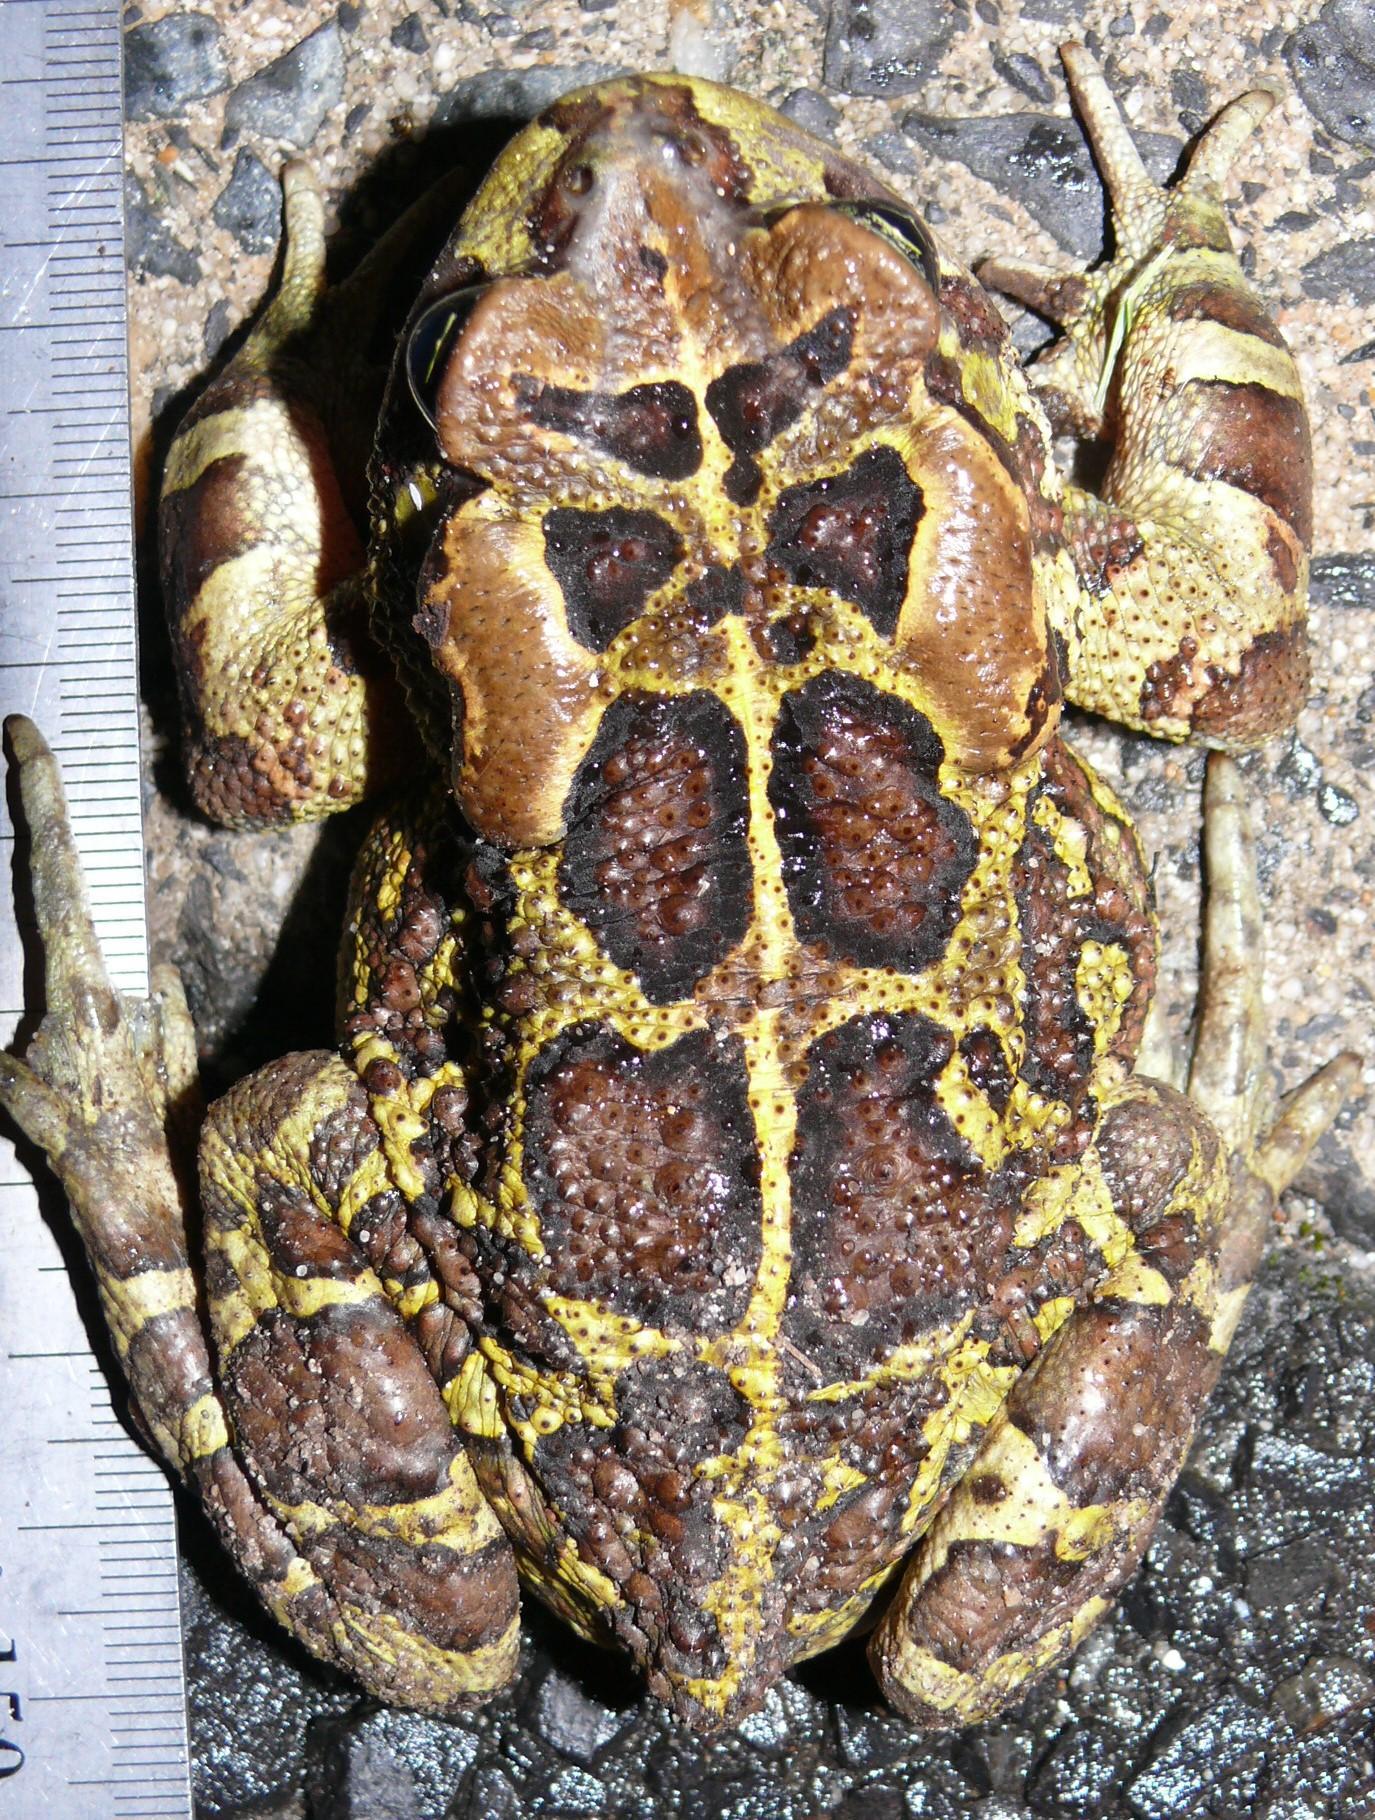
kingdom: Animalia
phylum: Chordata
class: Amphibia
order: Anura
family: Bufonidae
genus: Sclerophrys
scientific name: Sclerophrys pantherina
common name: Panther toad
